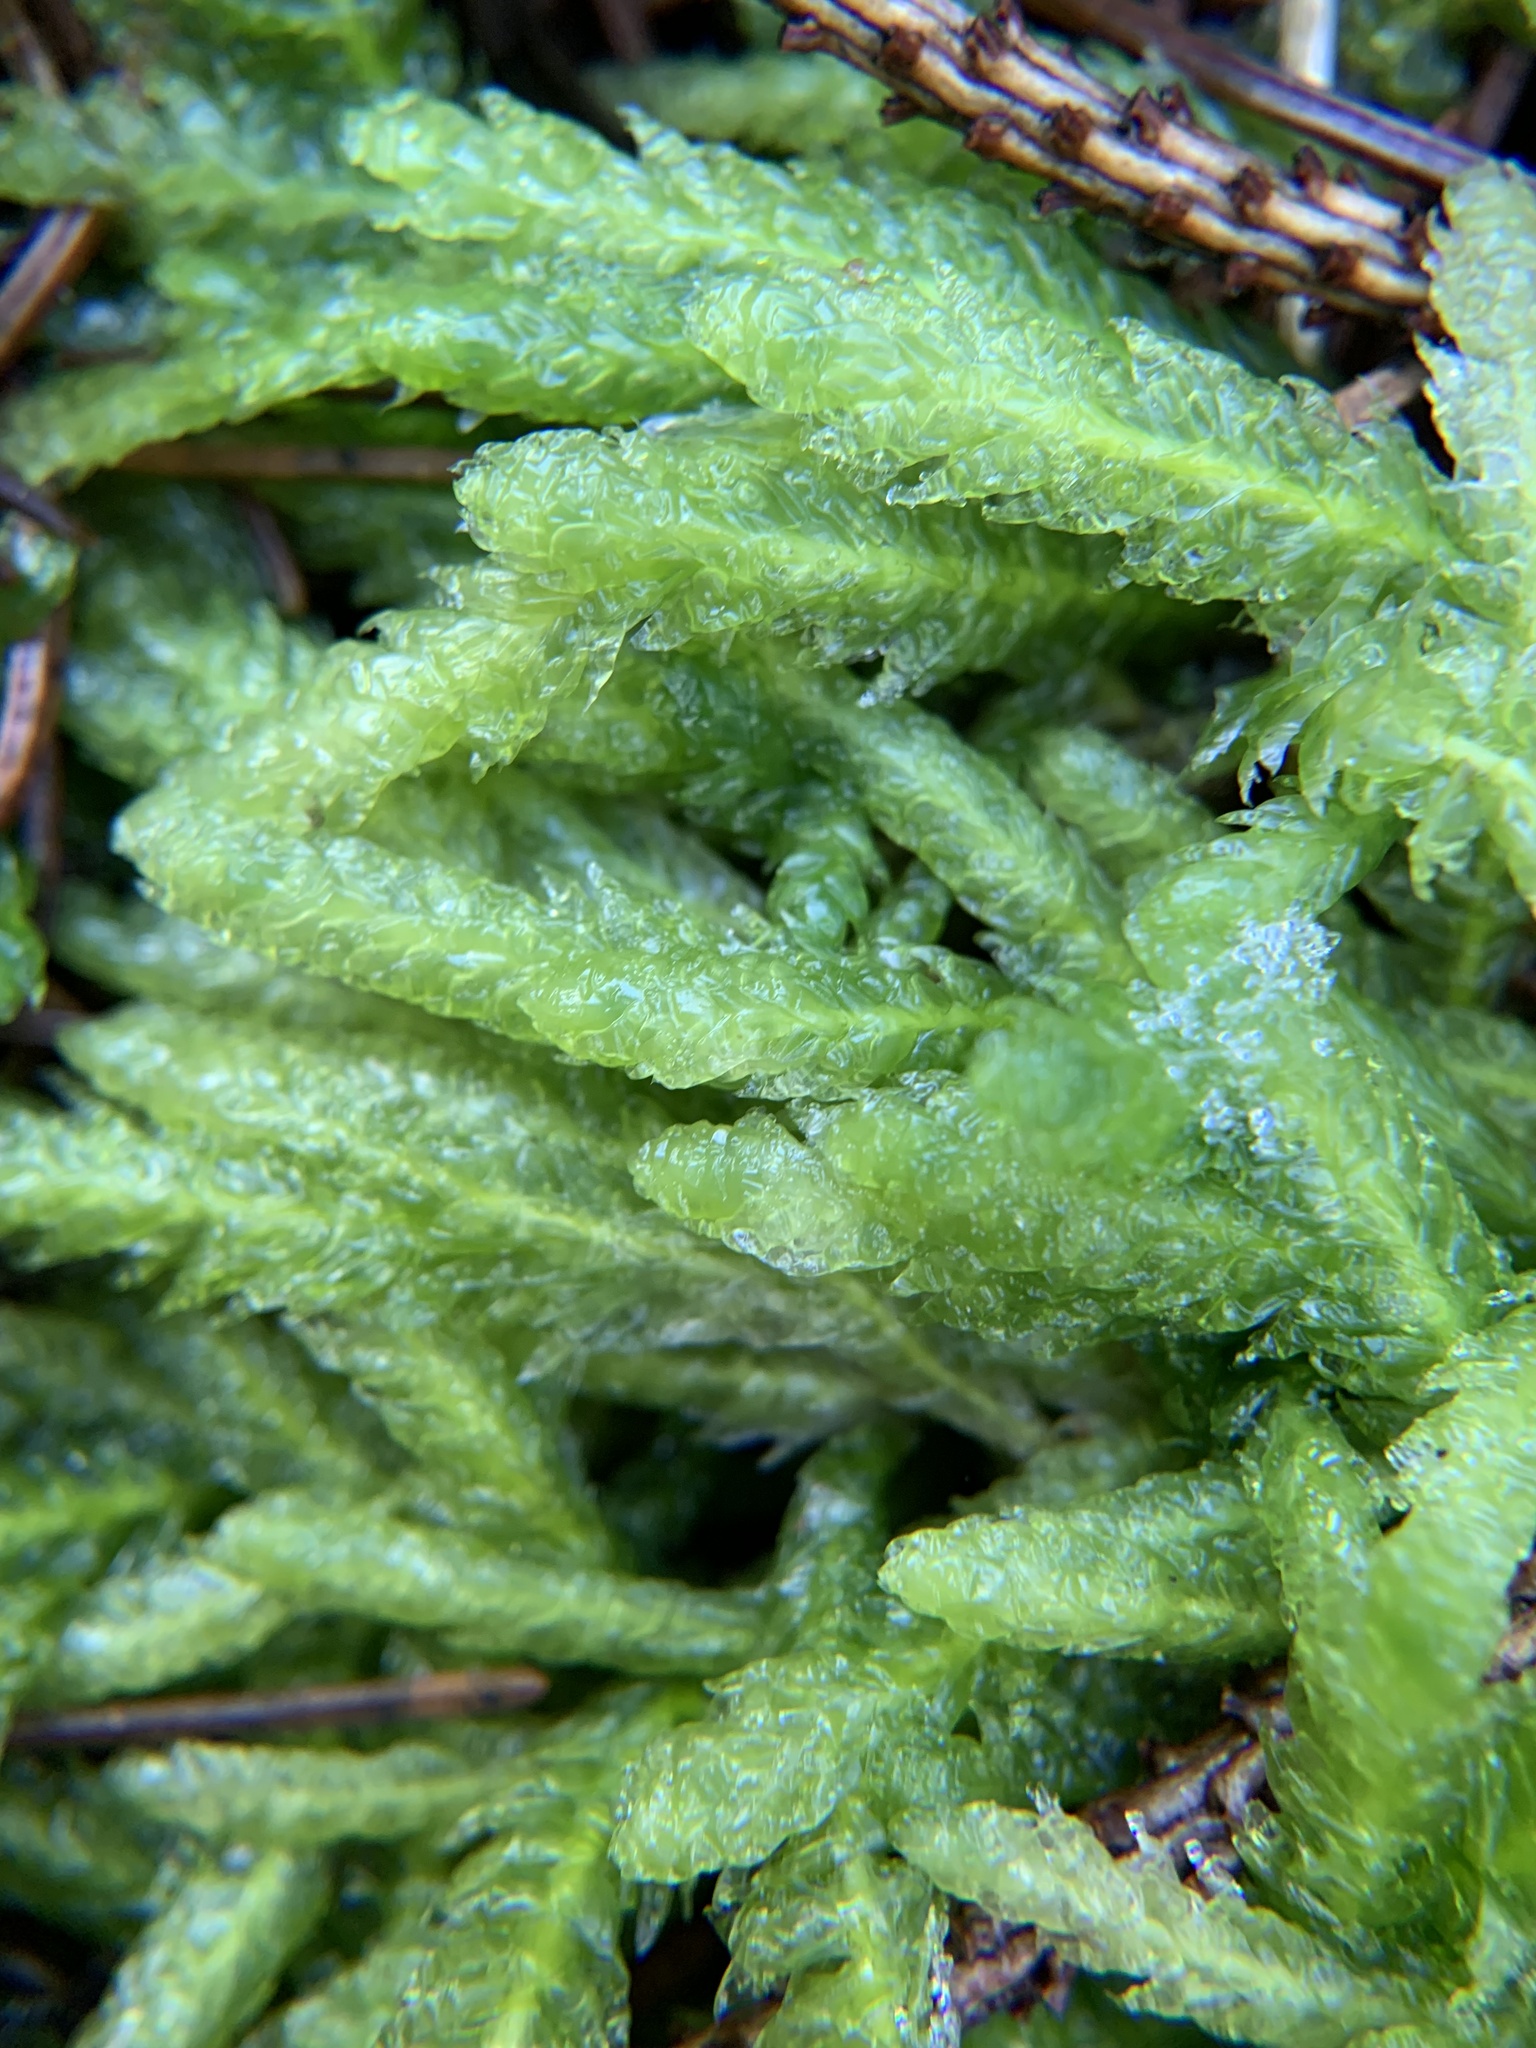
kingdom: Plantae
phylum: Bryophyta
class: Bryopsida
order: Hypnales
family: Plagiotheciaceae
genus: Plagiothecium
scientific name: Plagiothecium undulatum
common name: Waved silk-moss
